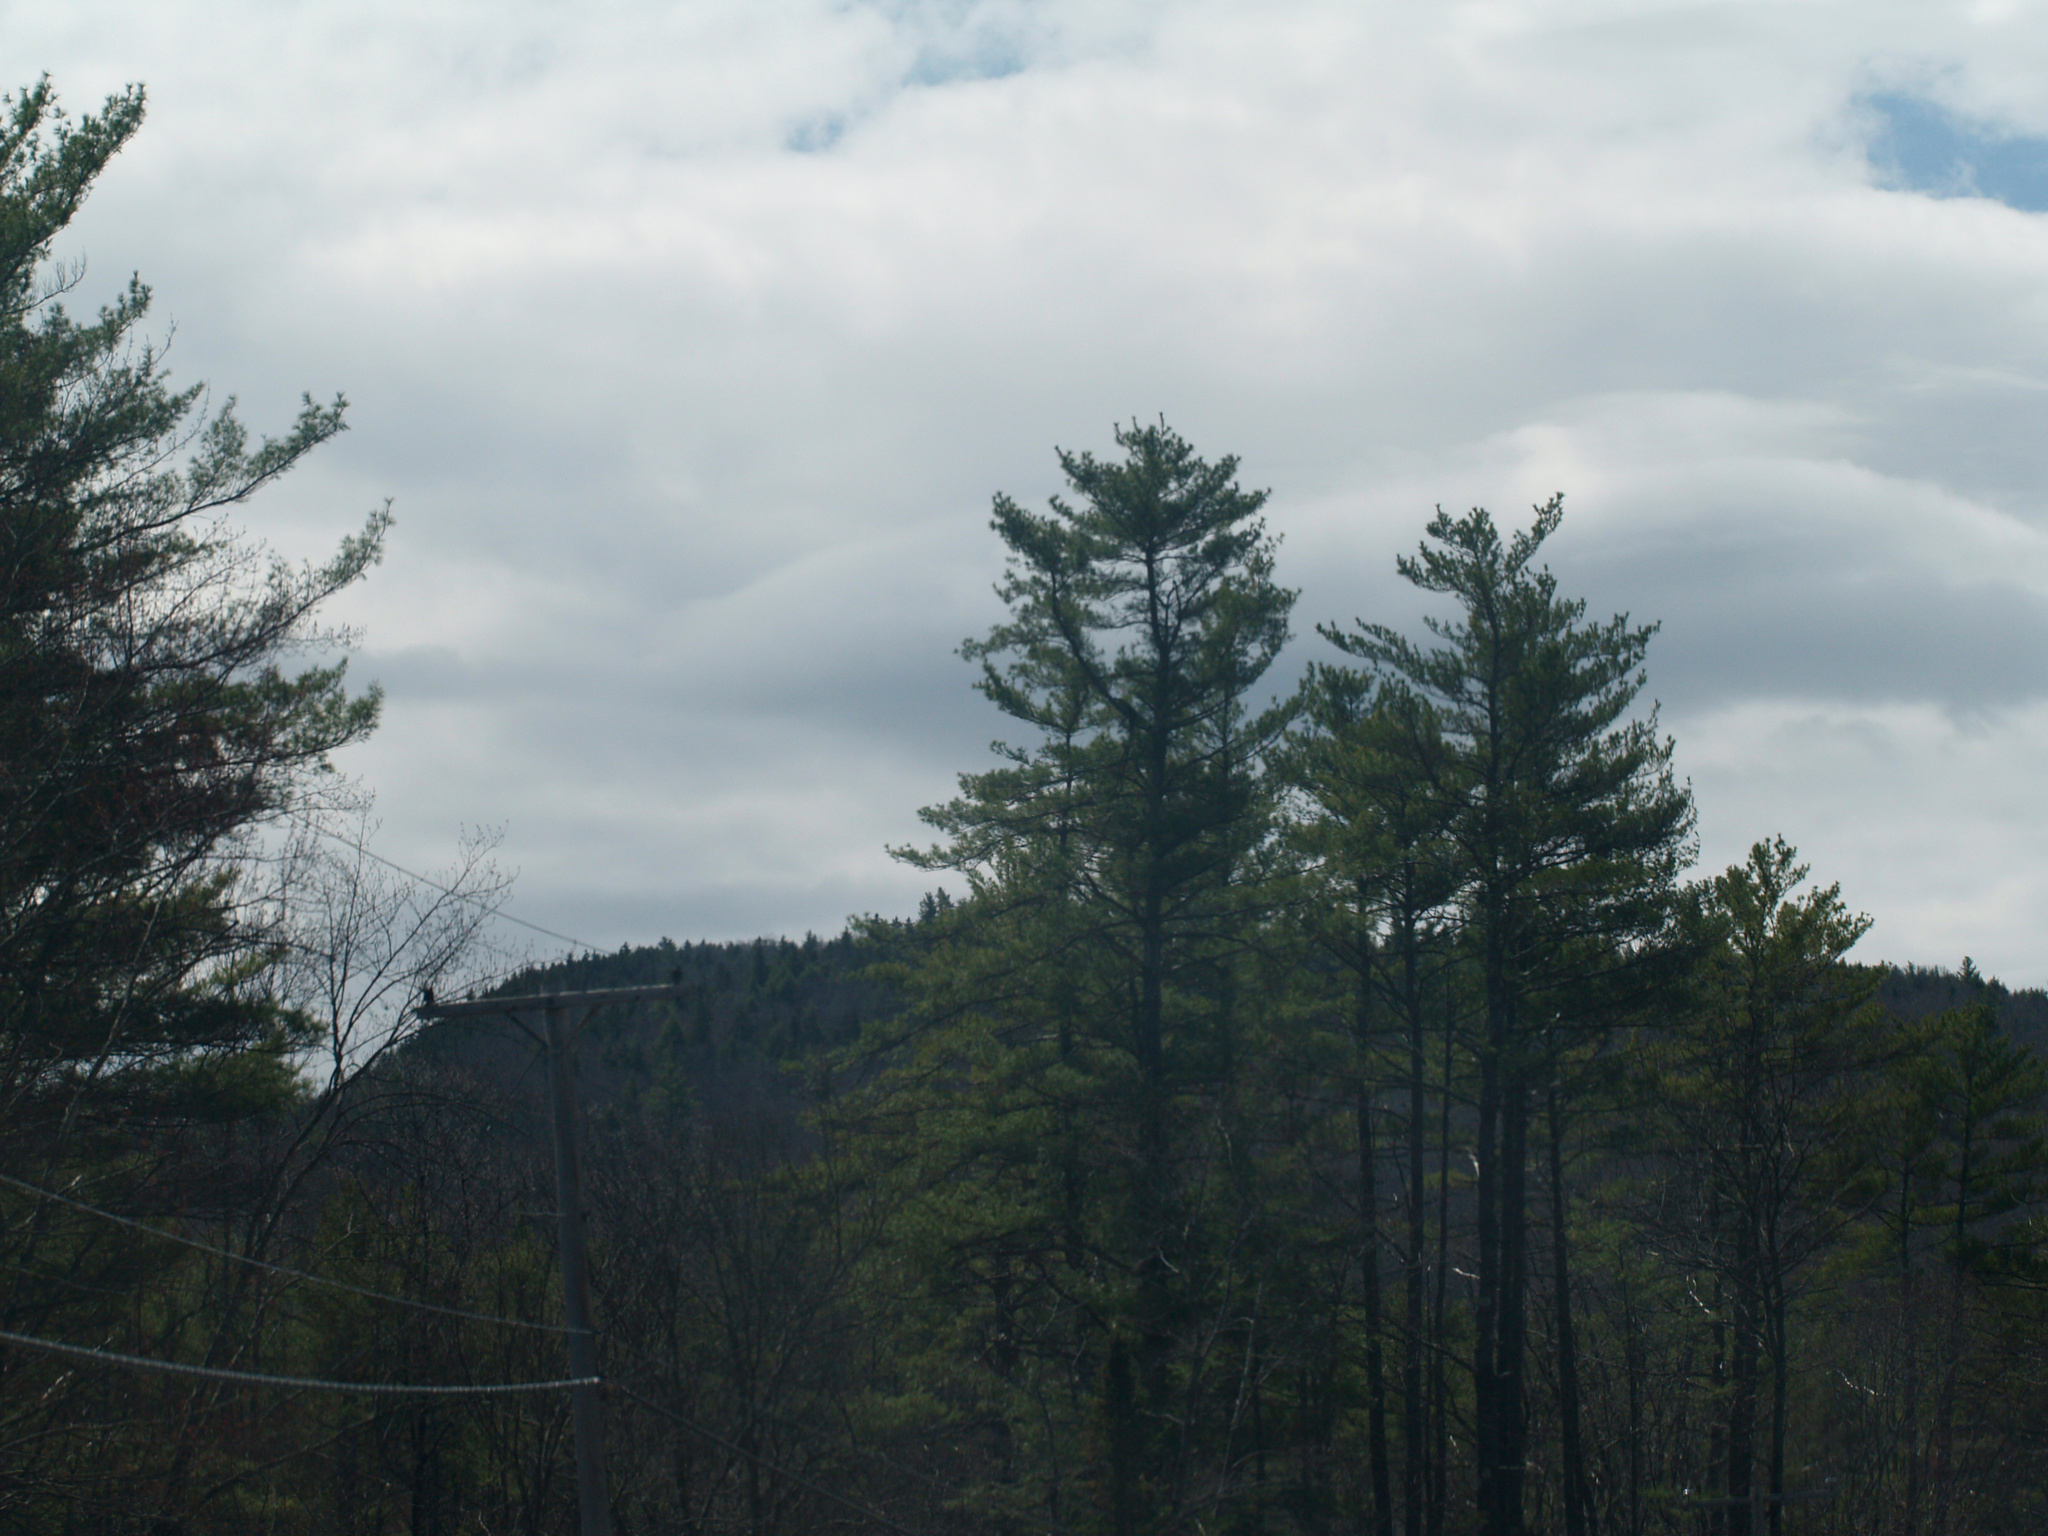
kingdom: Plantae
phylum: Tracheophyta
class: Pinopsida
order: Pinales
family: Pinaceae
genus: Pinus
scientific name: Pinus strobus
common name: Weymouth pine
